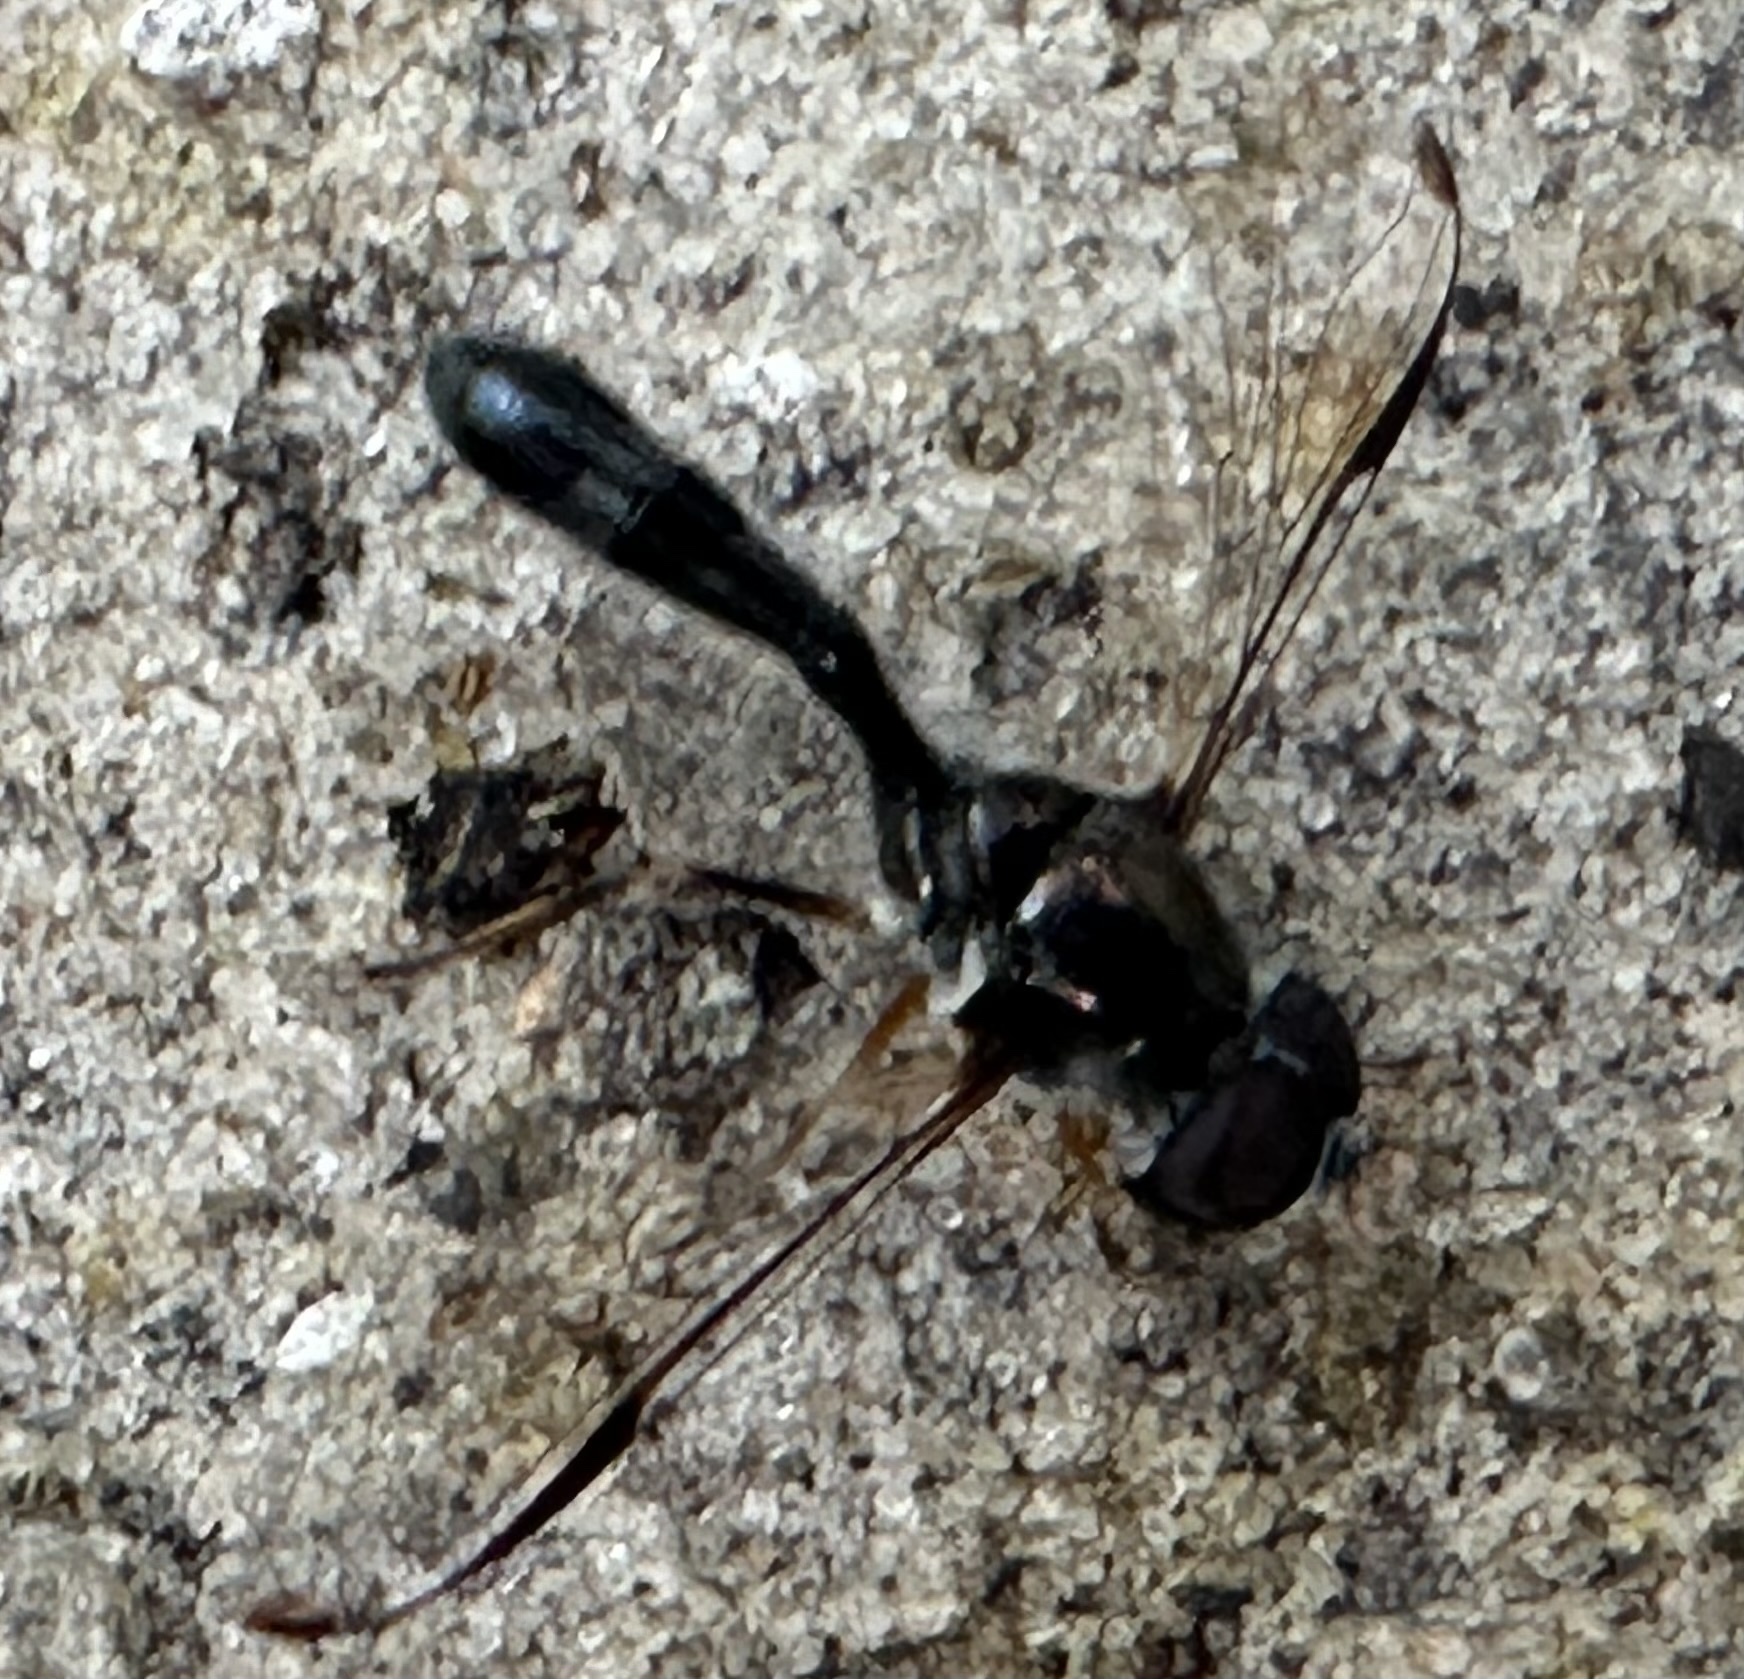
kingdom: Animalia
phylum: Arthropoda
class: Insecta
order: Diptera
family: Syrphidae
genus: Allobaccha
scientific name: Allobaccha sapphirina
